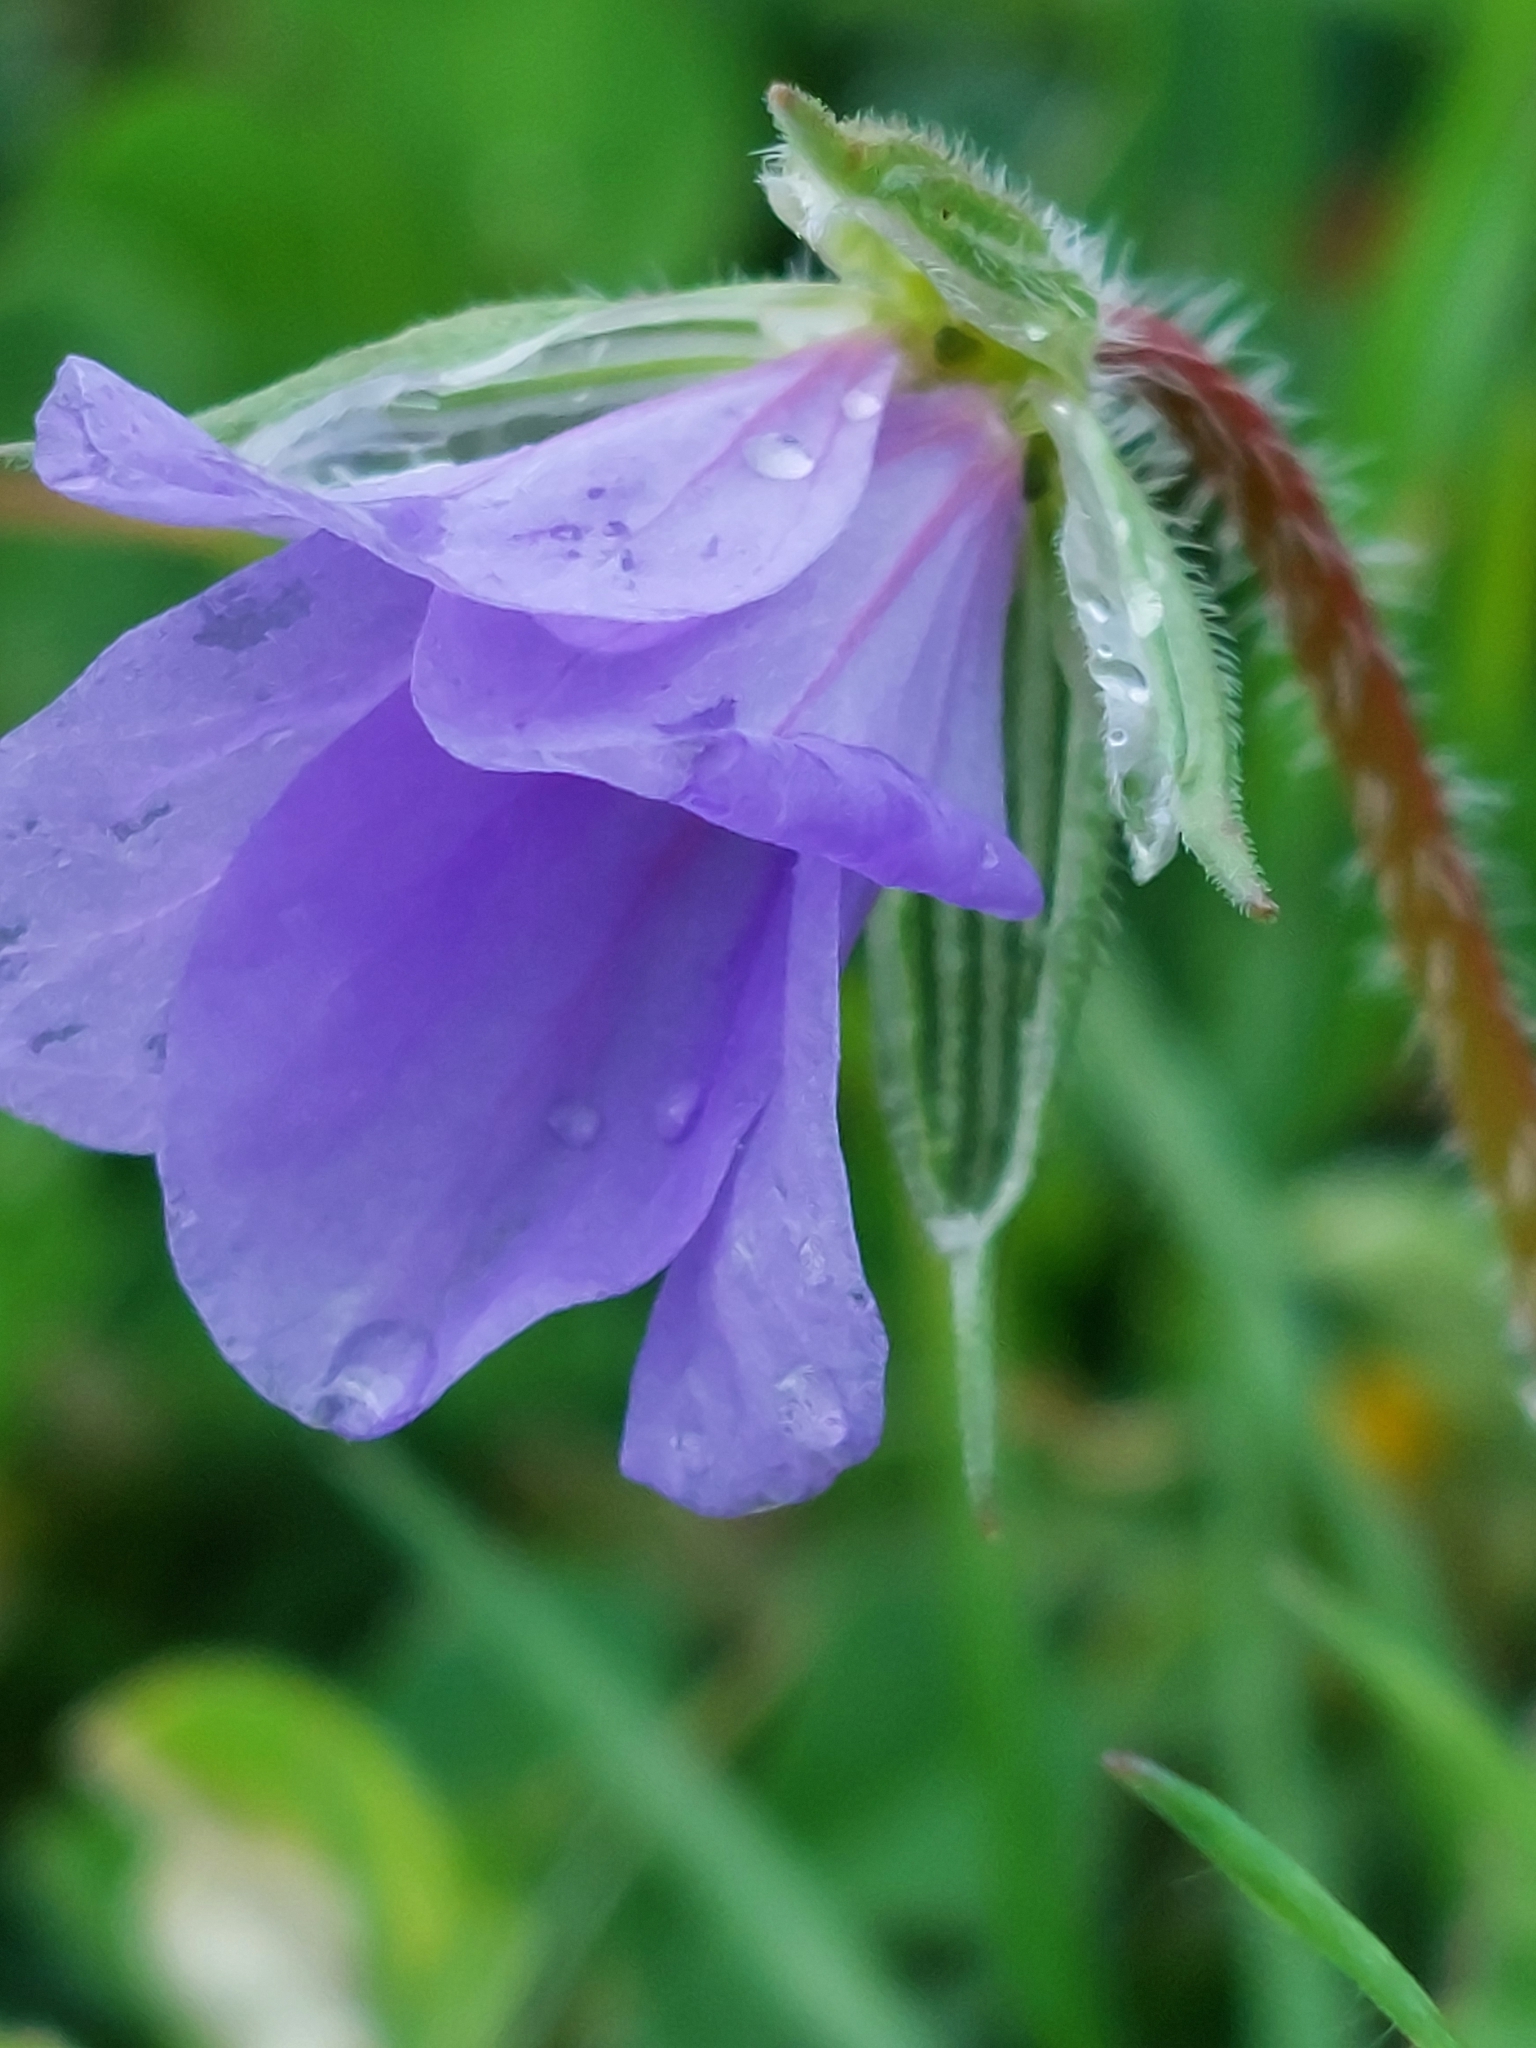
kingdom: Plantae
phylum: Tracheophyta
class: Magnoliopsida
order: Geraniales
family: Geraniaceae
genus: Erodium
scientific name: Erodium gruinum
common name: Iranian stork's bill
